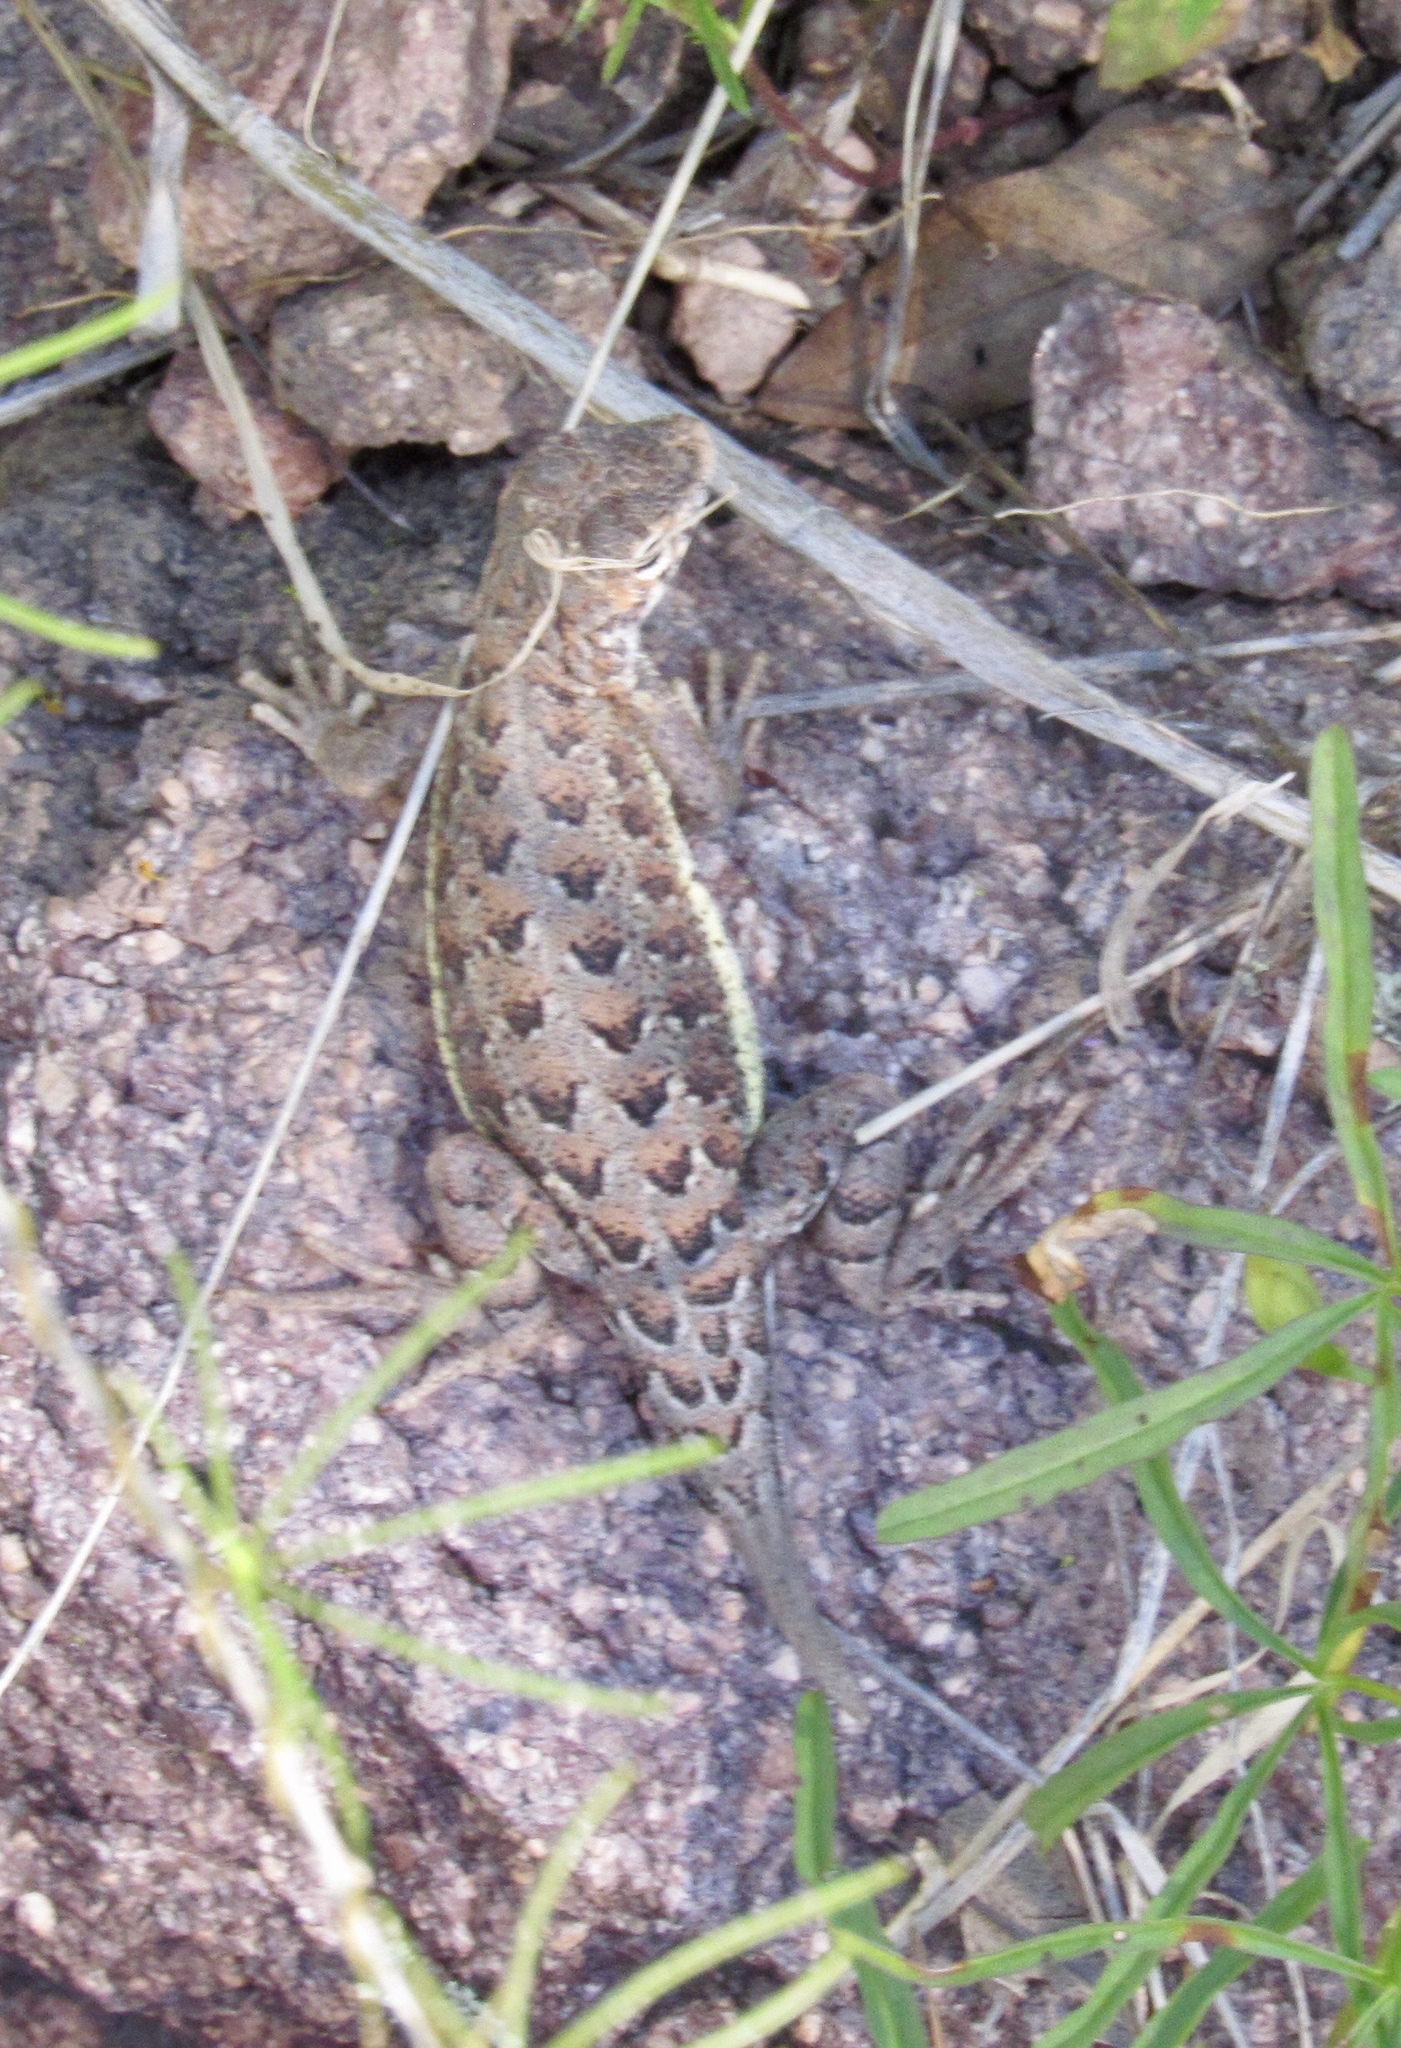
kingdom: Animalia
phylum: Chordata
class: Squamata
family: Phrynosomatidae
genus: Holbrookia
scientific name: Holbrookia elegans
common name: Elegant earless lizard
